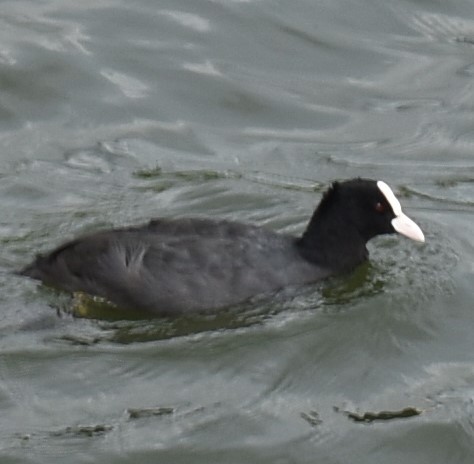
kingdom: Animalia
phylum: Chordata
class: Aves
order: Gruiformes
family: Rallidae
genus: Fulica
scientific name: Fulica atra
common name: Eurasian coot
